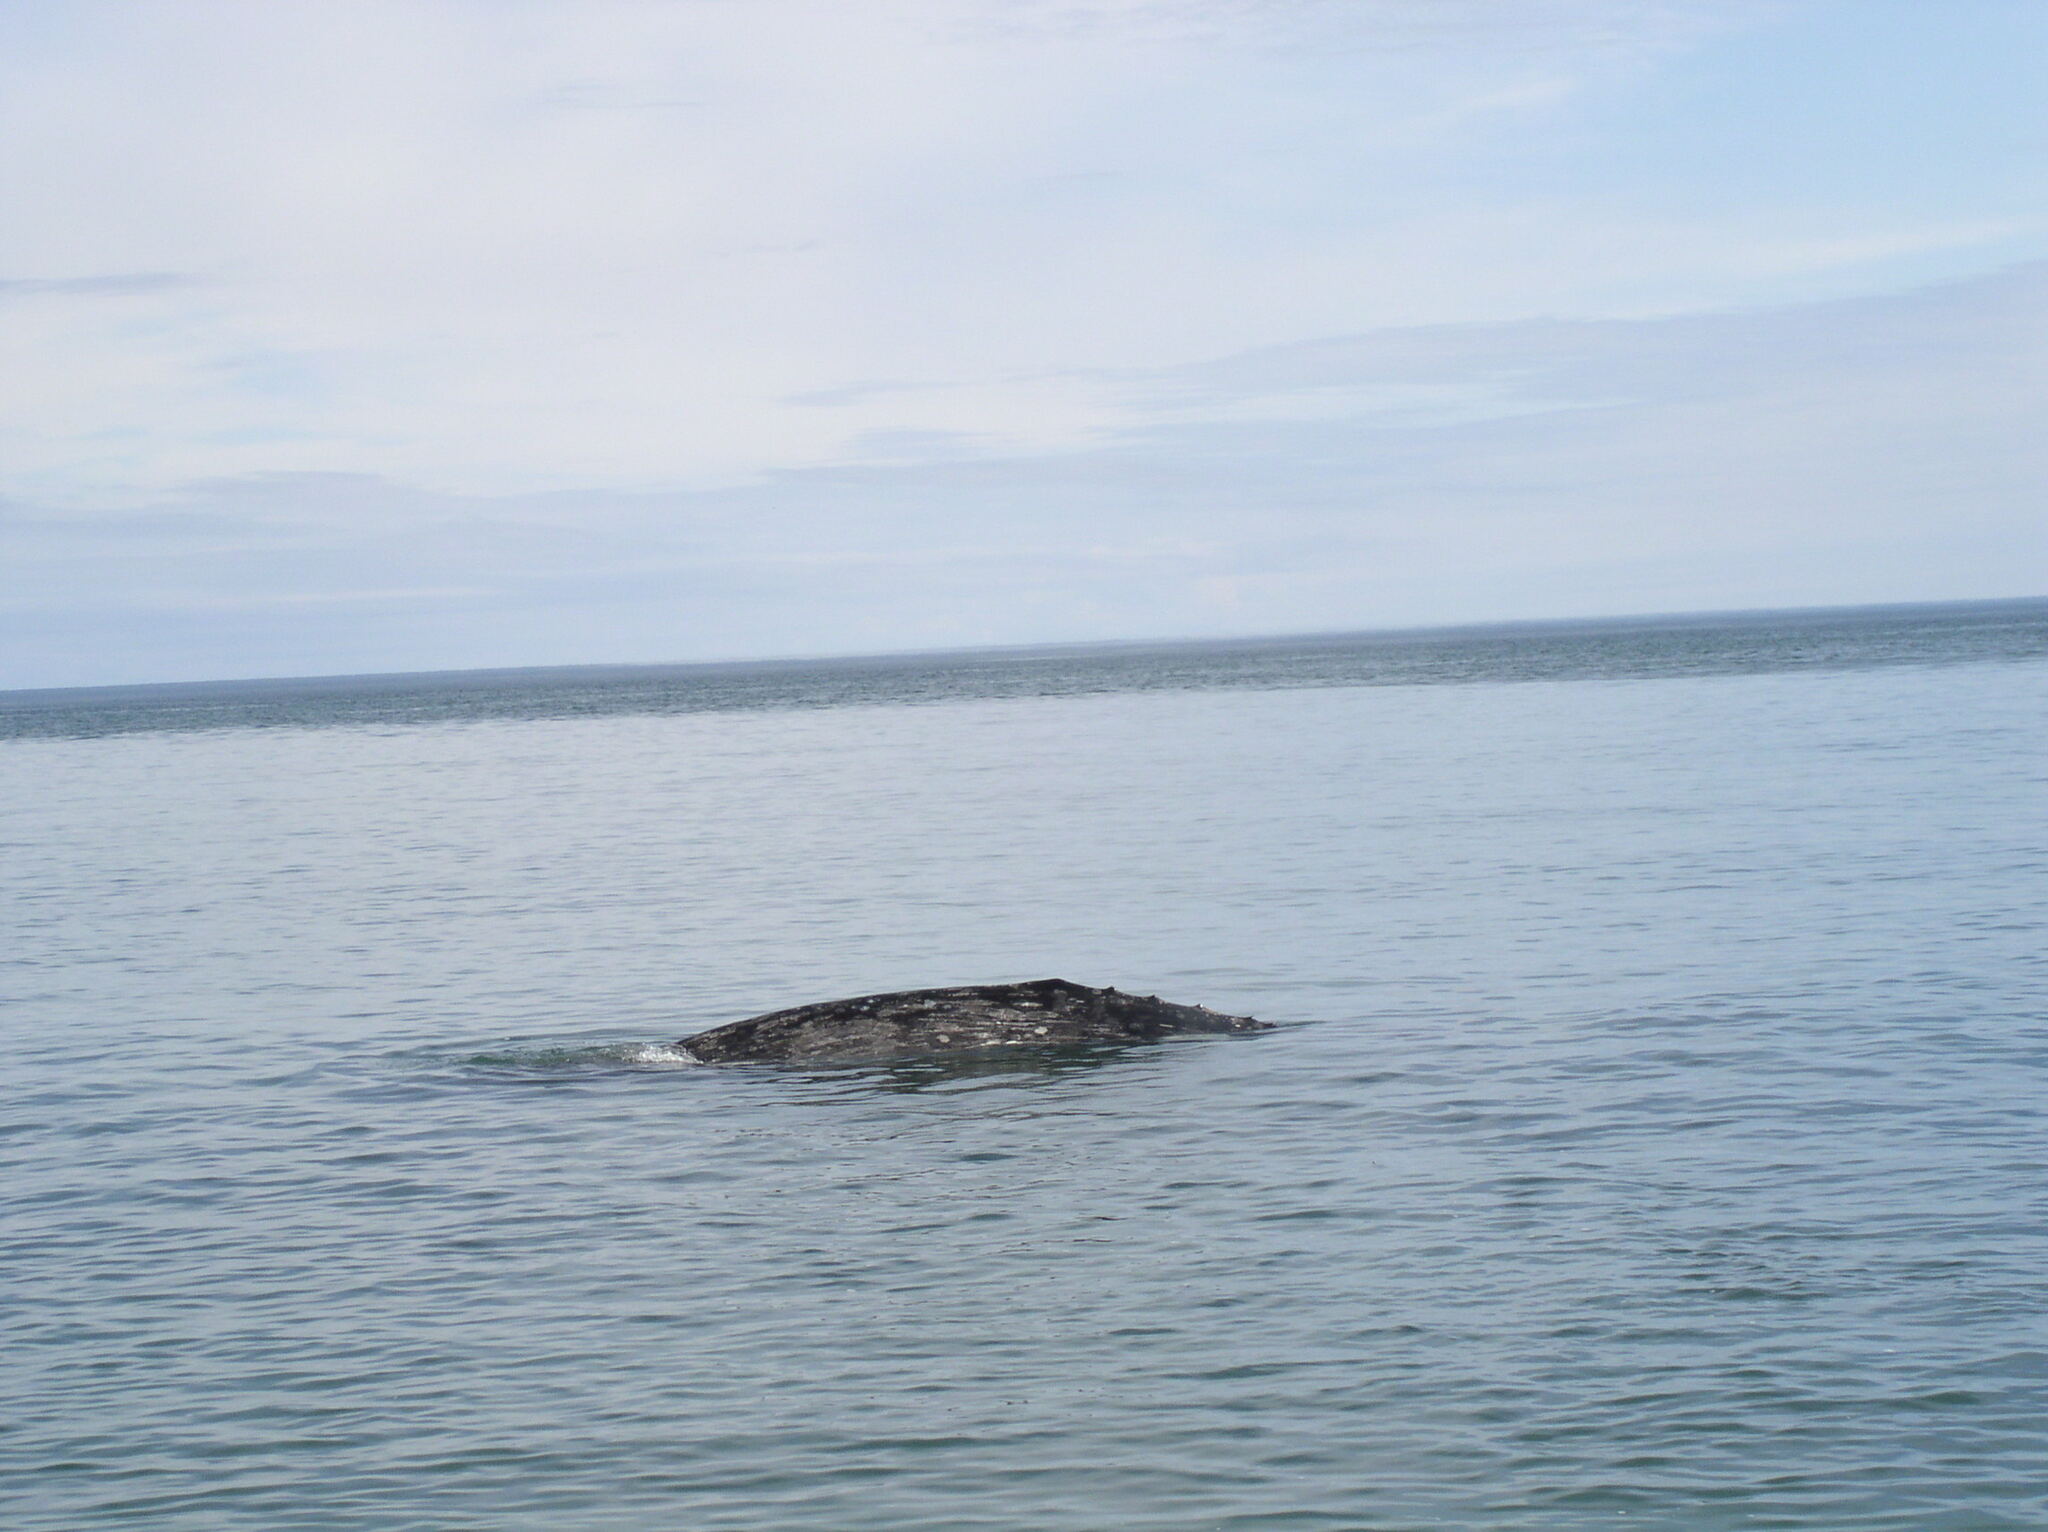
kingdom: Animalia
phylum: Chordata
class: Mammalia
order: Cetacea
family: Eschrichtiidae
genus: Eschrichtius
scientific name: Eschrichtius robustus
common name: Gray whale
